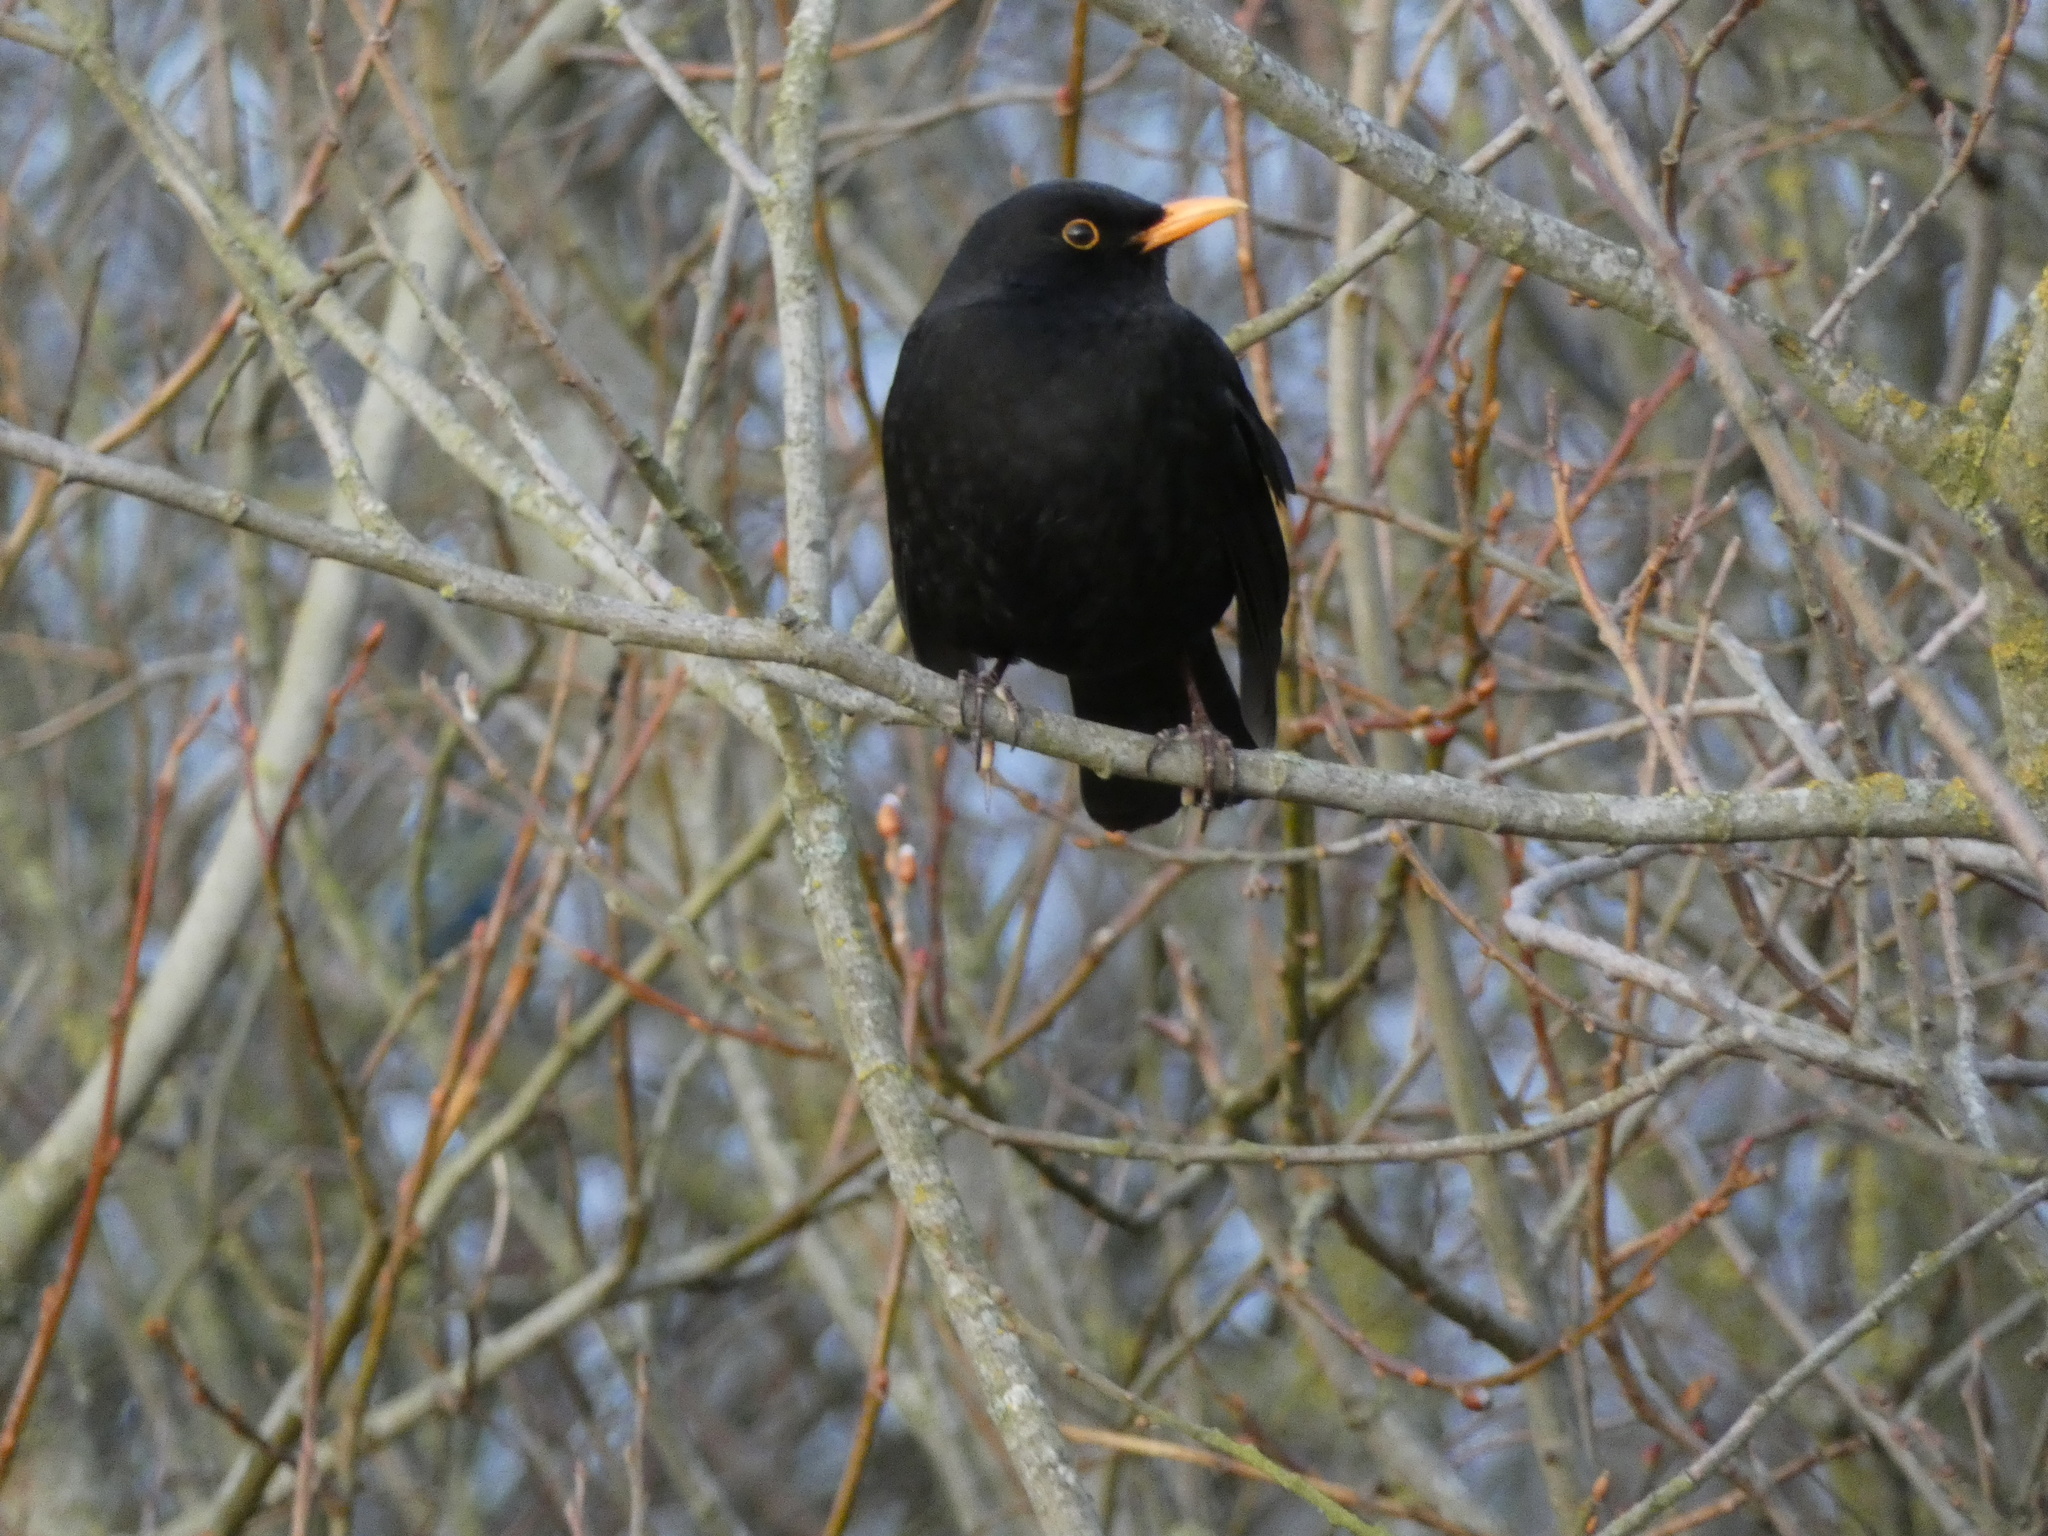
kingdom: Animalia
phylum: Chordata
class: Aves
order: Passeriformes
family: Turdidae
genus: Turdus
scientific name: Turdus merula
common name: Common blackbird
